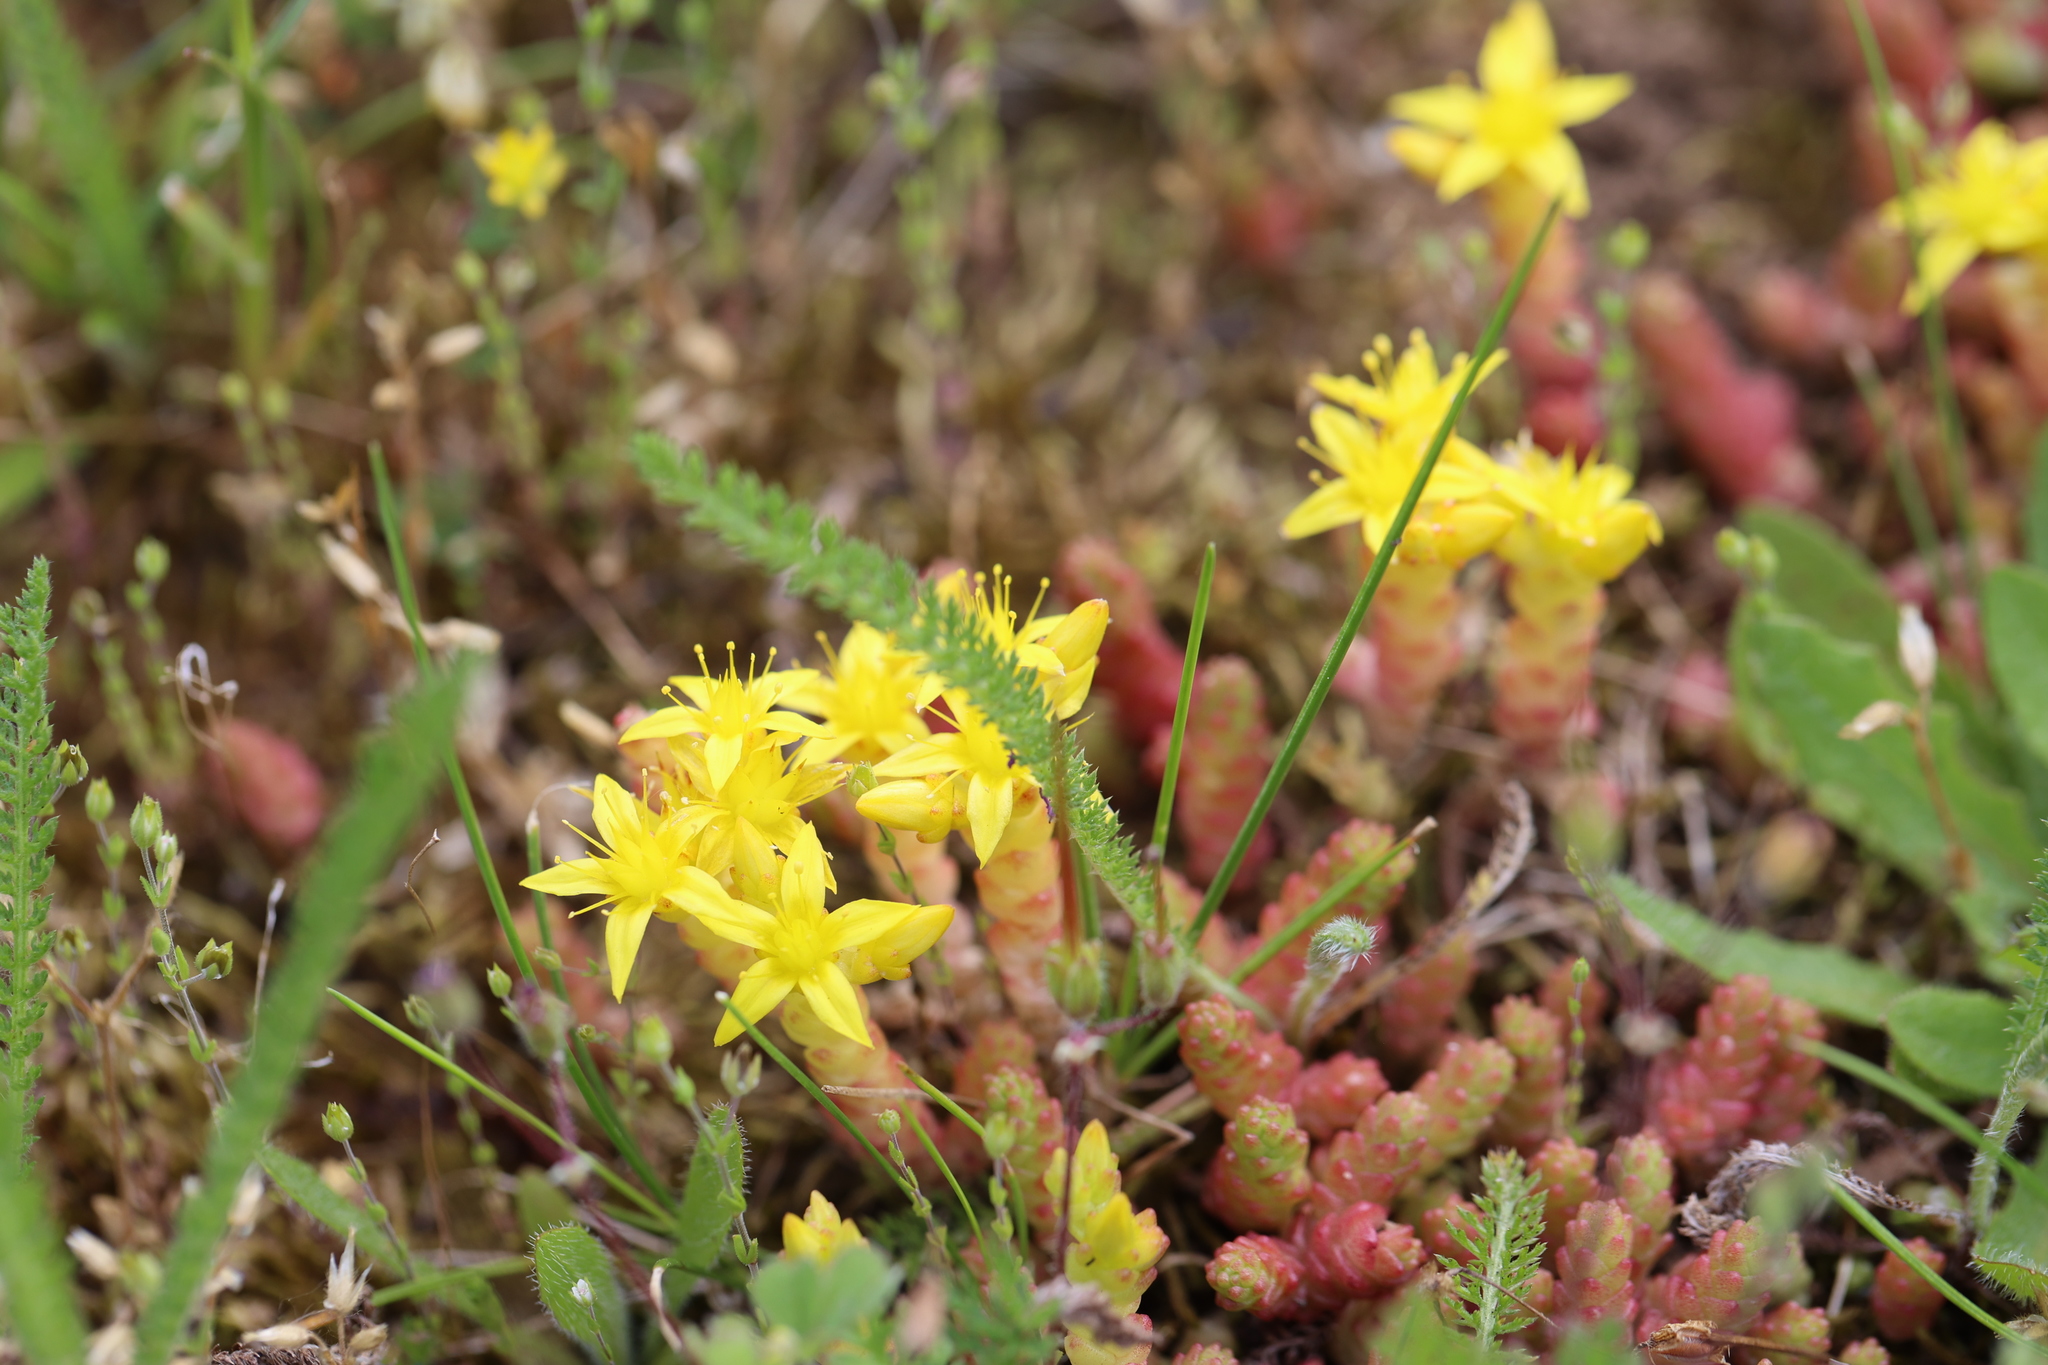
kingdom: Plantae
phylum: Tracheophyta
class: Magnoliopsida
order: Saxifragales
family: Crassulaceae
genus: Sedum
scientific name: Sedum acre
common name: Biting stonecrop
